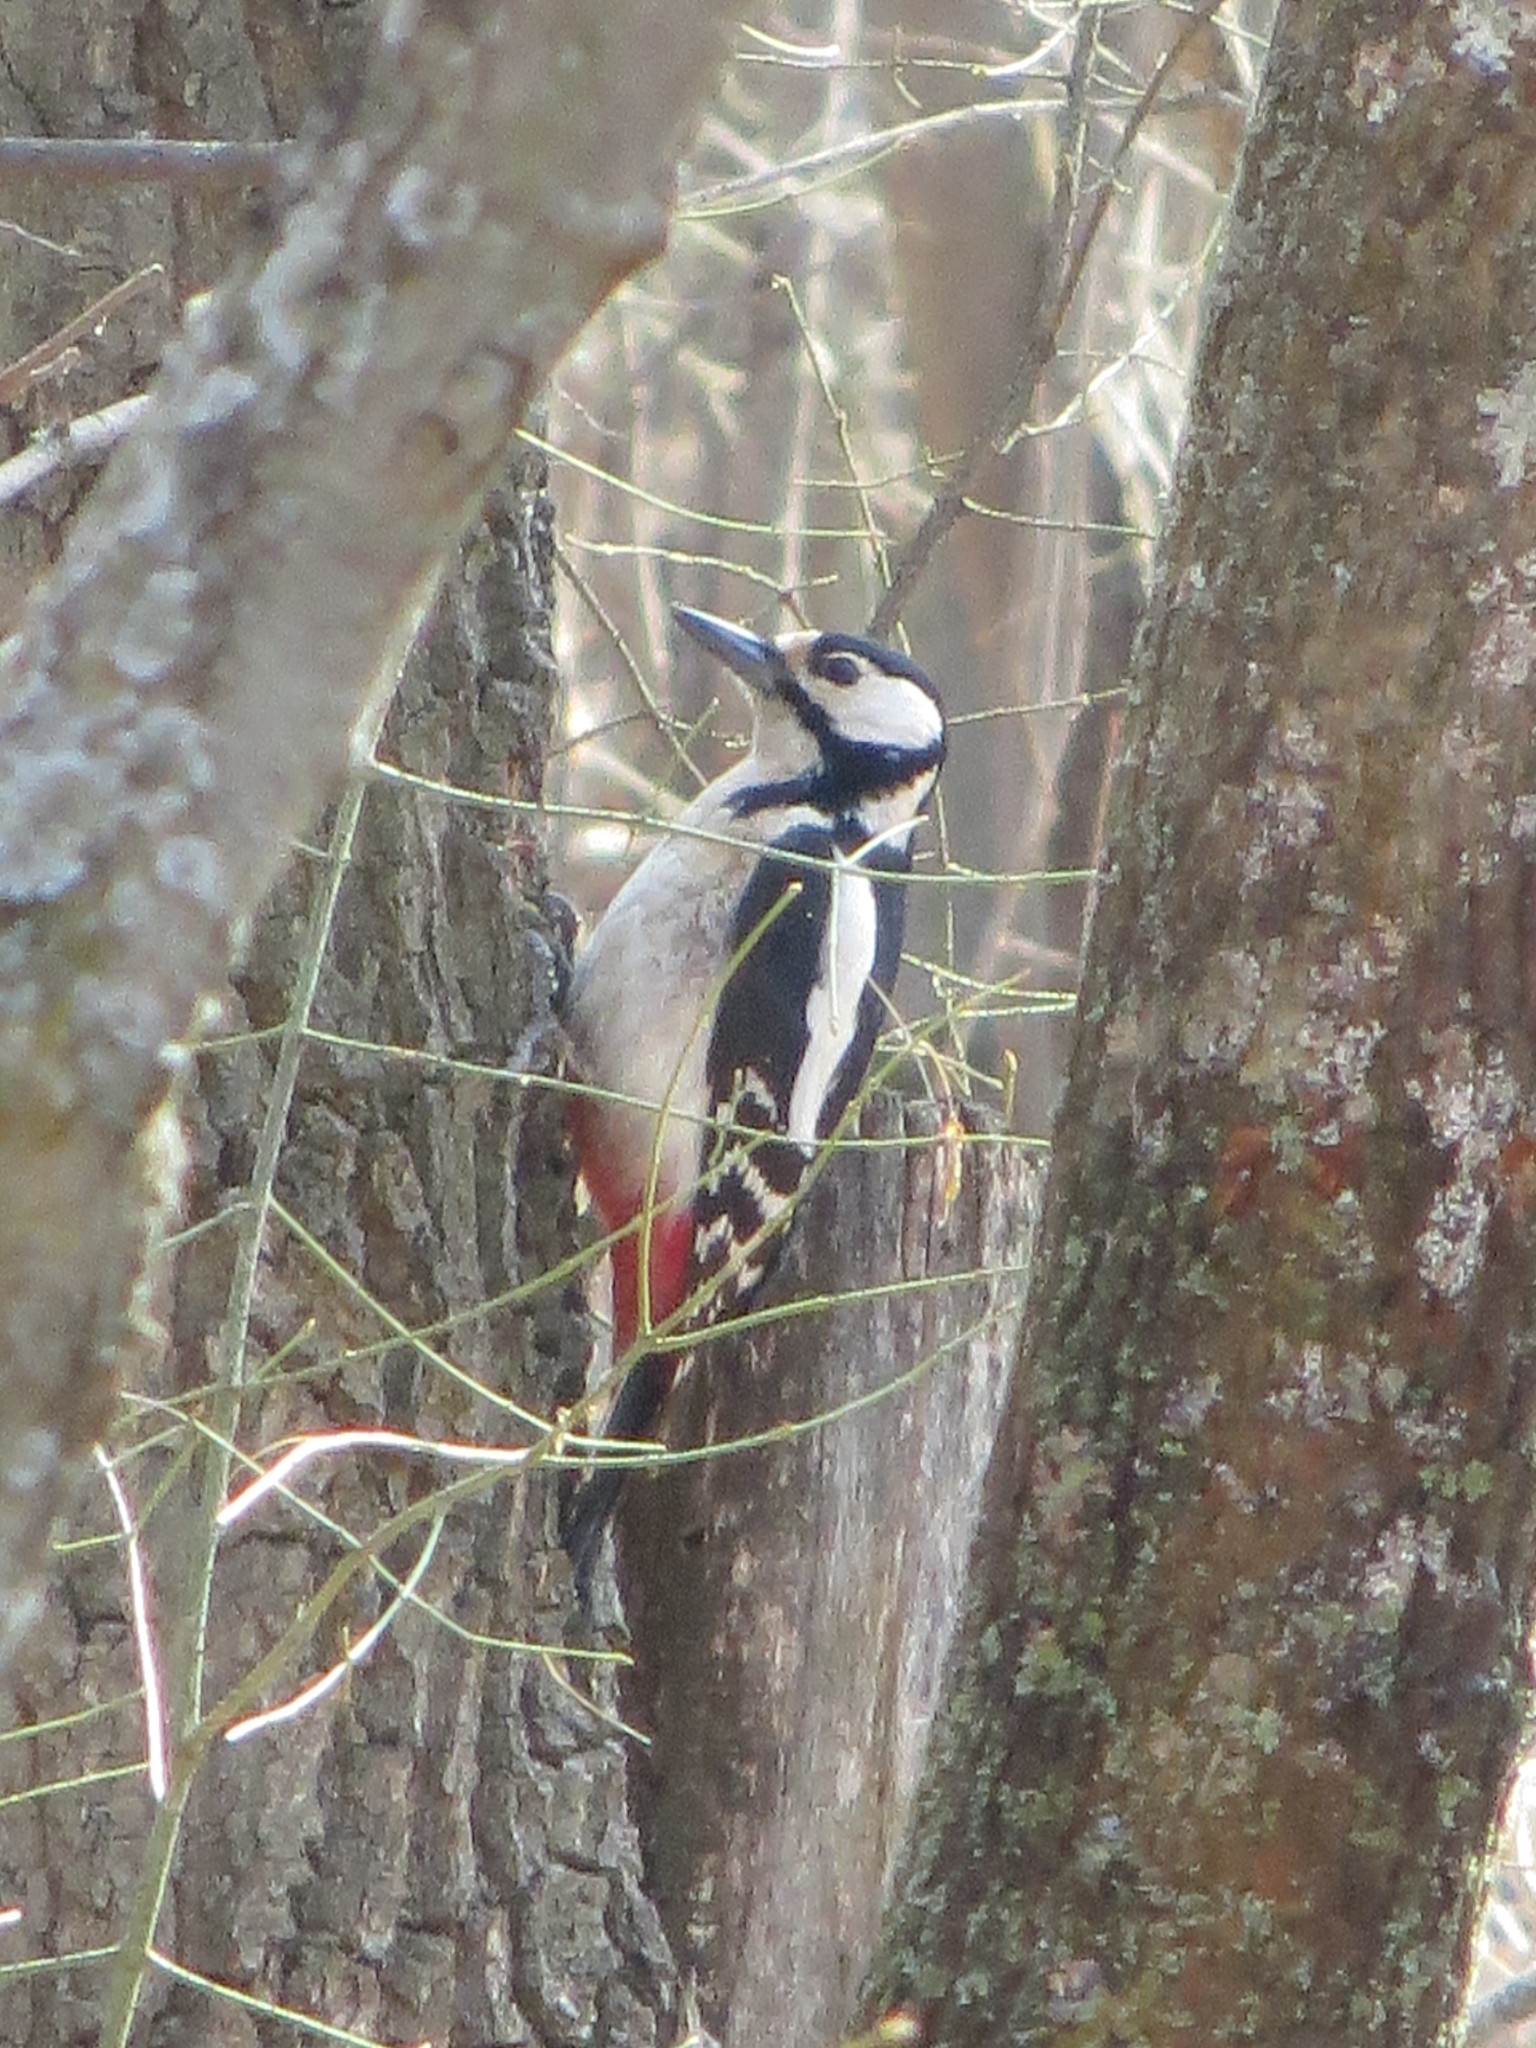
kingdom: Animalia
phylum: Chordata
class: Aves
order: Piciformes
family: Picidae
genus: Dendrocopos
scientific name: Dendrocopos major
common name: Great spotted woodpecker
